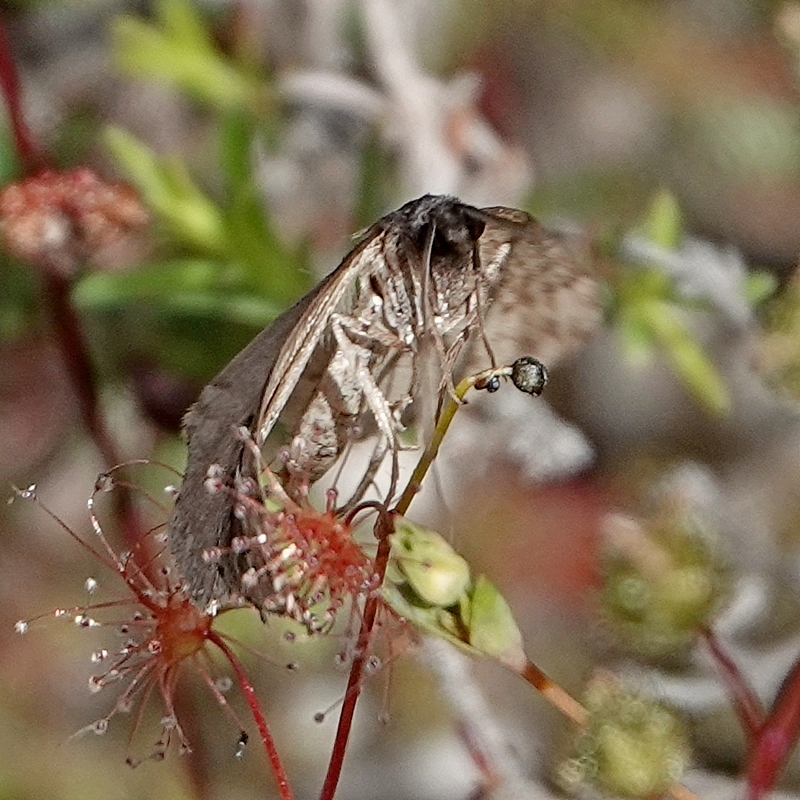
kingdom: Animalia
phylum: Arthropoda
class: Insecta
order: Lepidoptera
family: Geometridae
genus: Dichromodes
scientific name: Dichromodes stilbiata
